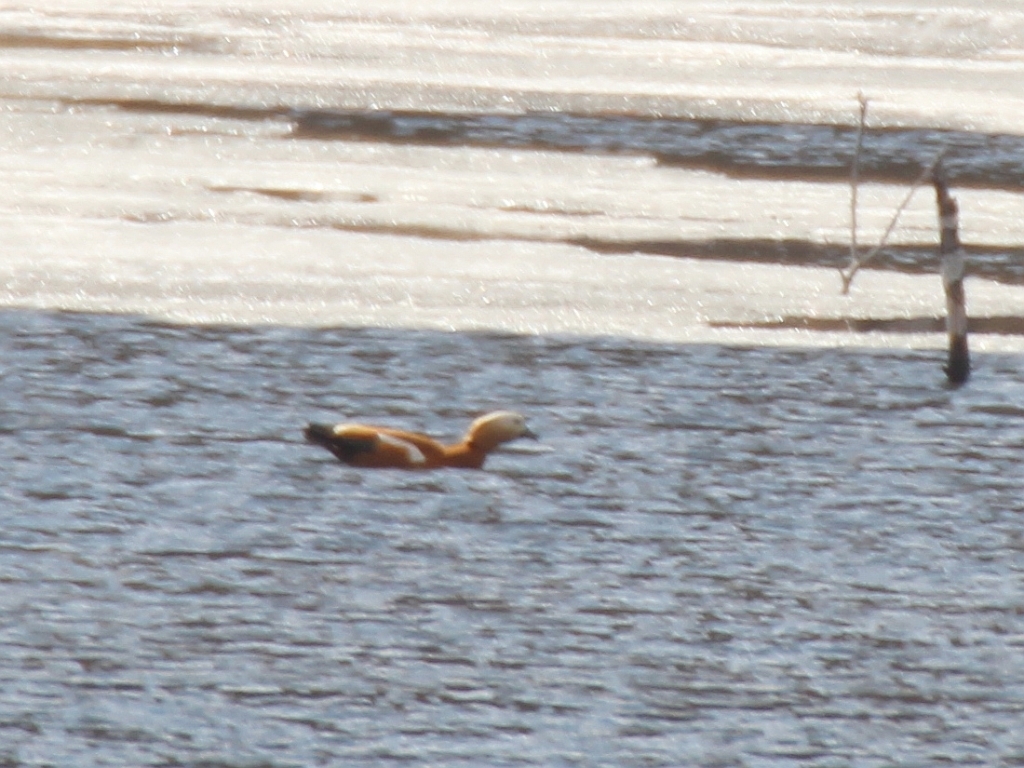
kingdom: Animalia
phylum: Chordata
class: Aves
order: Anseriformes
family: Anatidae
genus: Tadorna
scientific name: Tadorna ferruginea
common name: Ruddy shelduck
